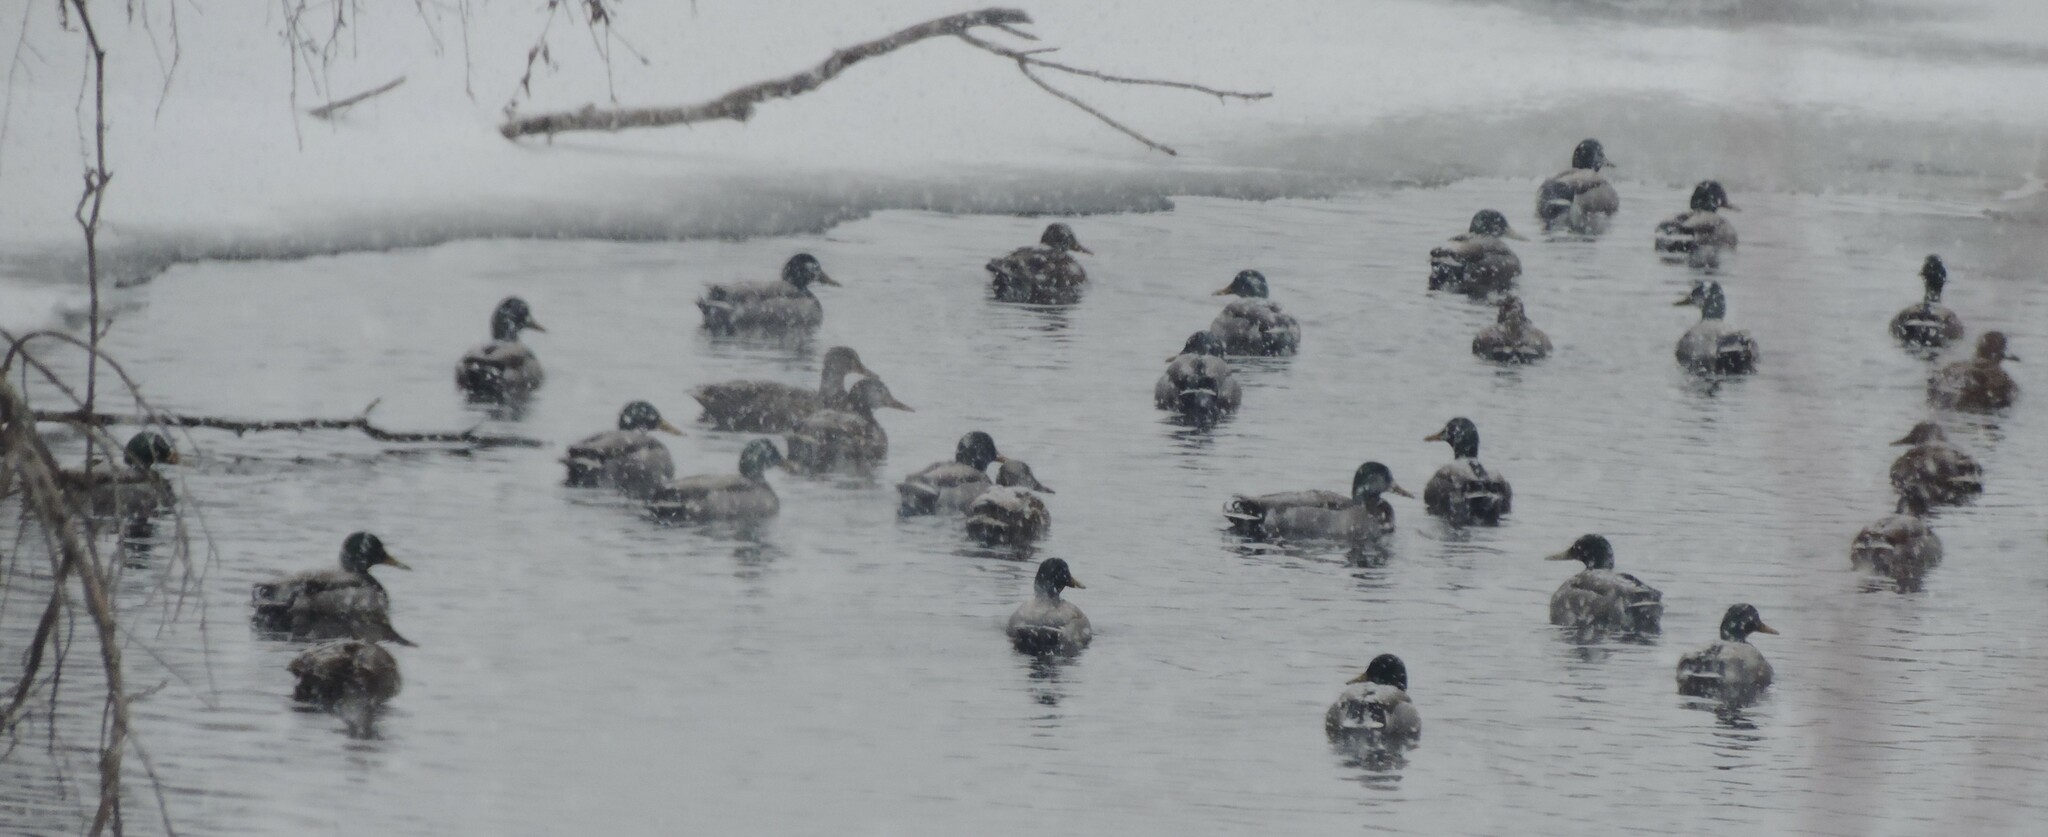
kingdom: Animalia
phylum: Chordata
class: Aves
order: Anseriformes
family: Anatidae
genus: Anas
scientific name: Anas platyrhynchos
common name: Mallard
